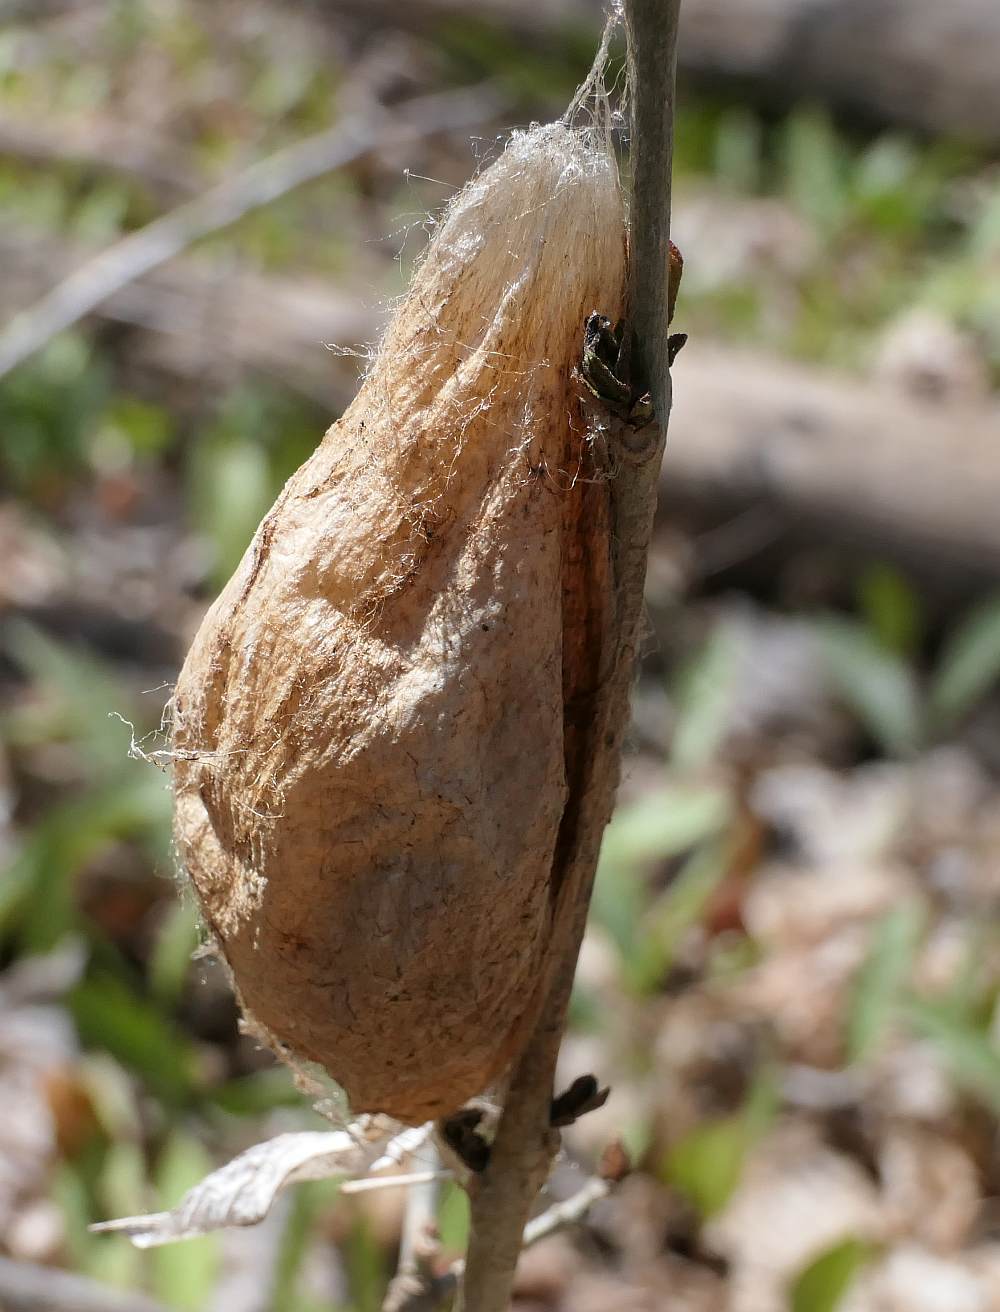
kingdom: Animalia
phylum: Arthropoda
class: Insecta
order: Lepidoptera
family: Saturniidae
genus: Hyalophora
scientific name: Hyalophora cecropia
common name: Cecropia silkmoth
